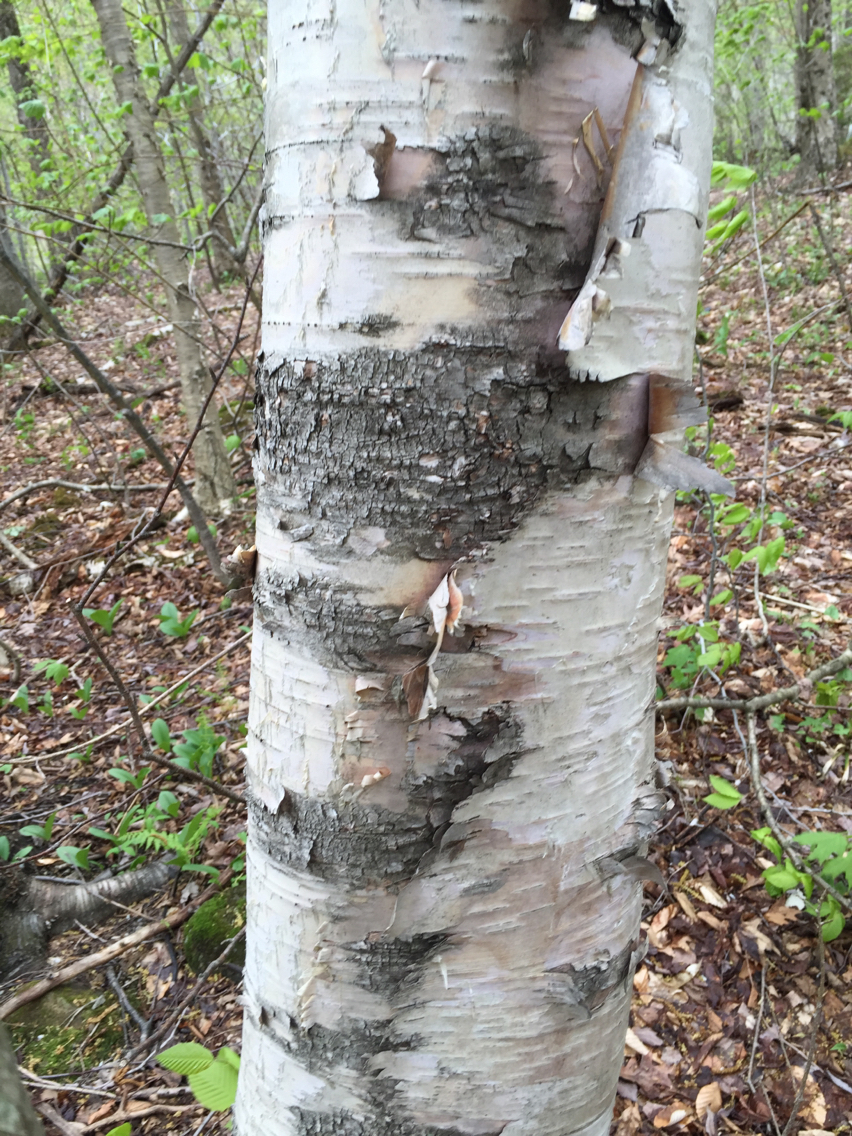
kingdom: Plantae
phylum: Tracheophyta
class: Magnoliopsida
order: Fagales
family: Betulaceae
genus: Betula
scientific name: Betula papyrifera
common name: Paper birch
